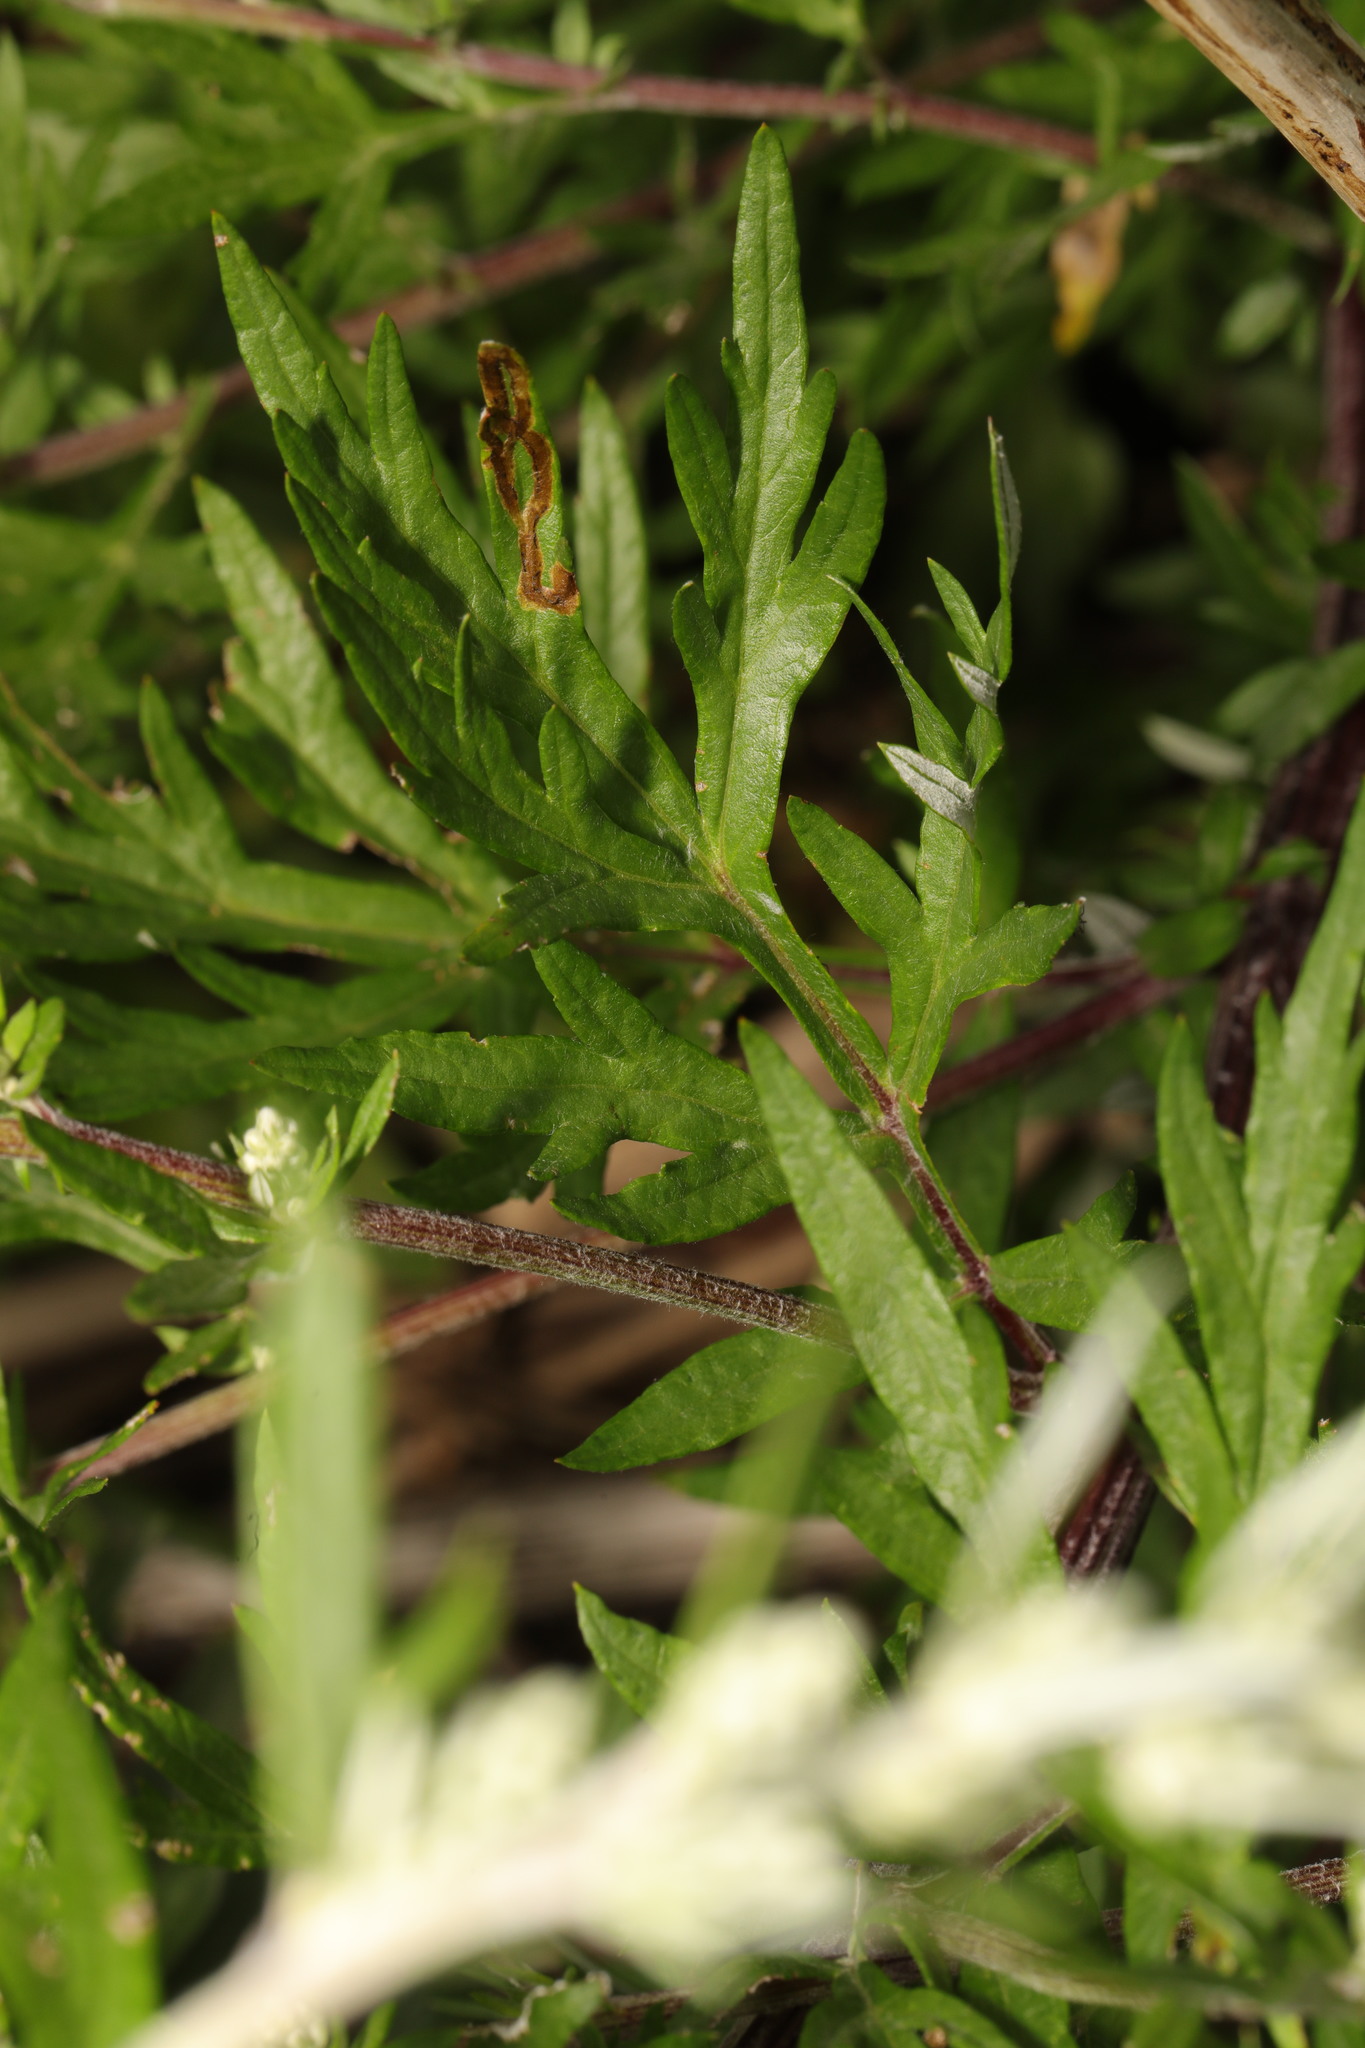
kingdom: Plantae
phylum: Tracheophyta
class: Magnoliopsida
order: Asterales
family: Asteraceae
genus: Artemisia
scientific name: Artemisia vulgaris
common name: Mugwort
